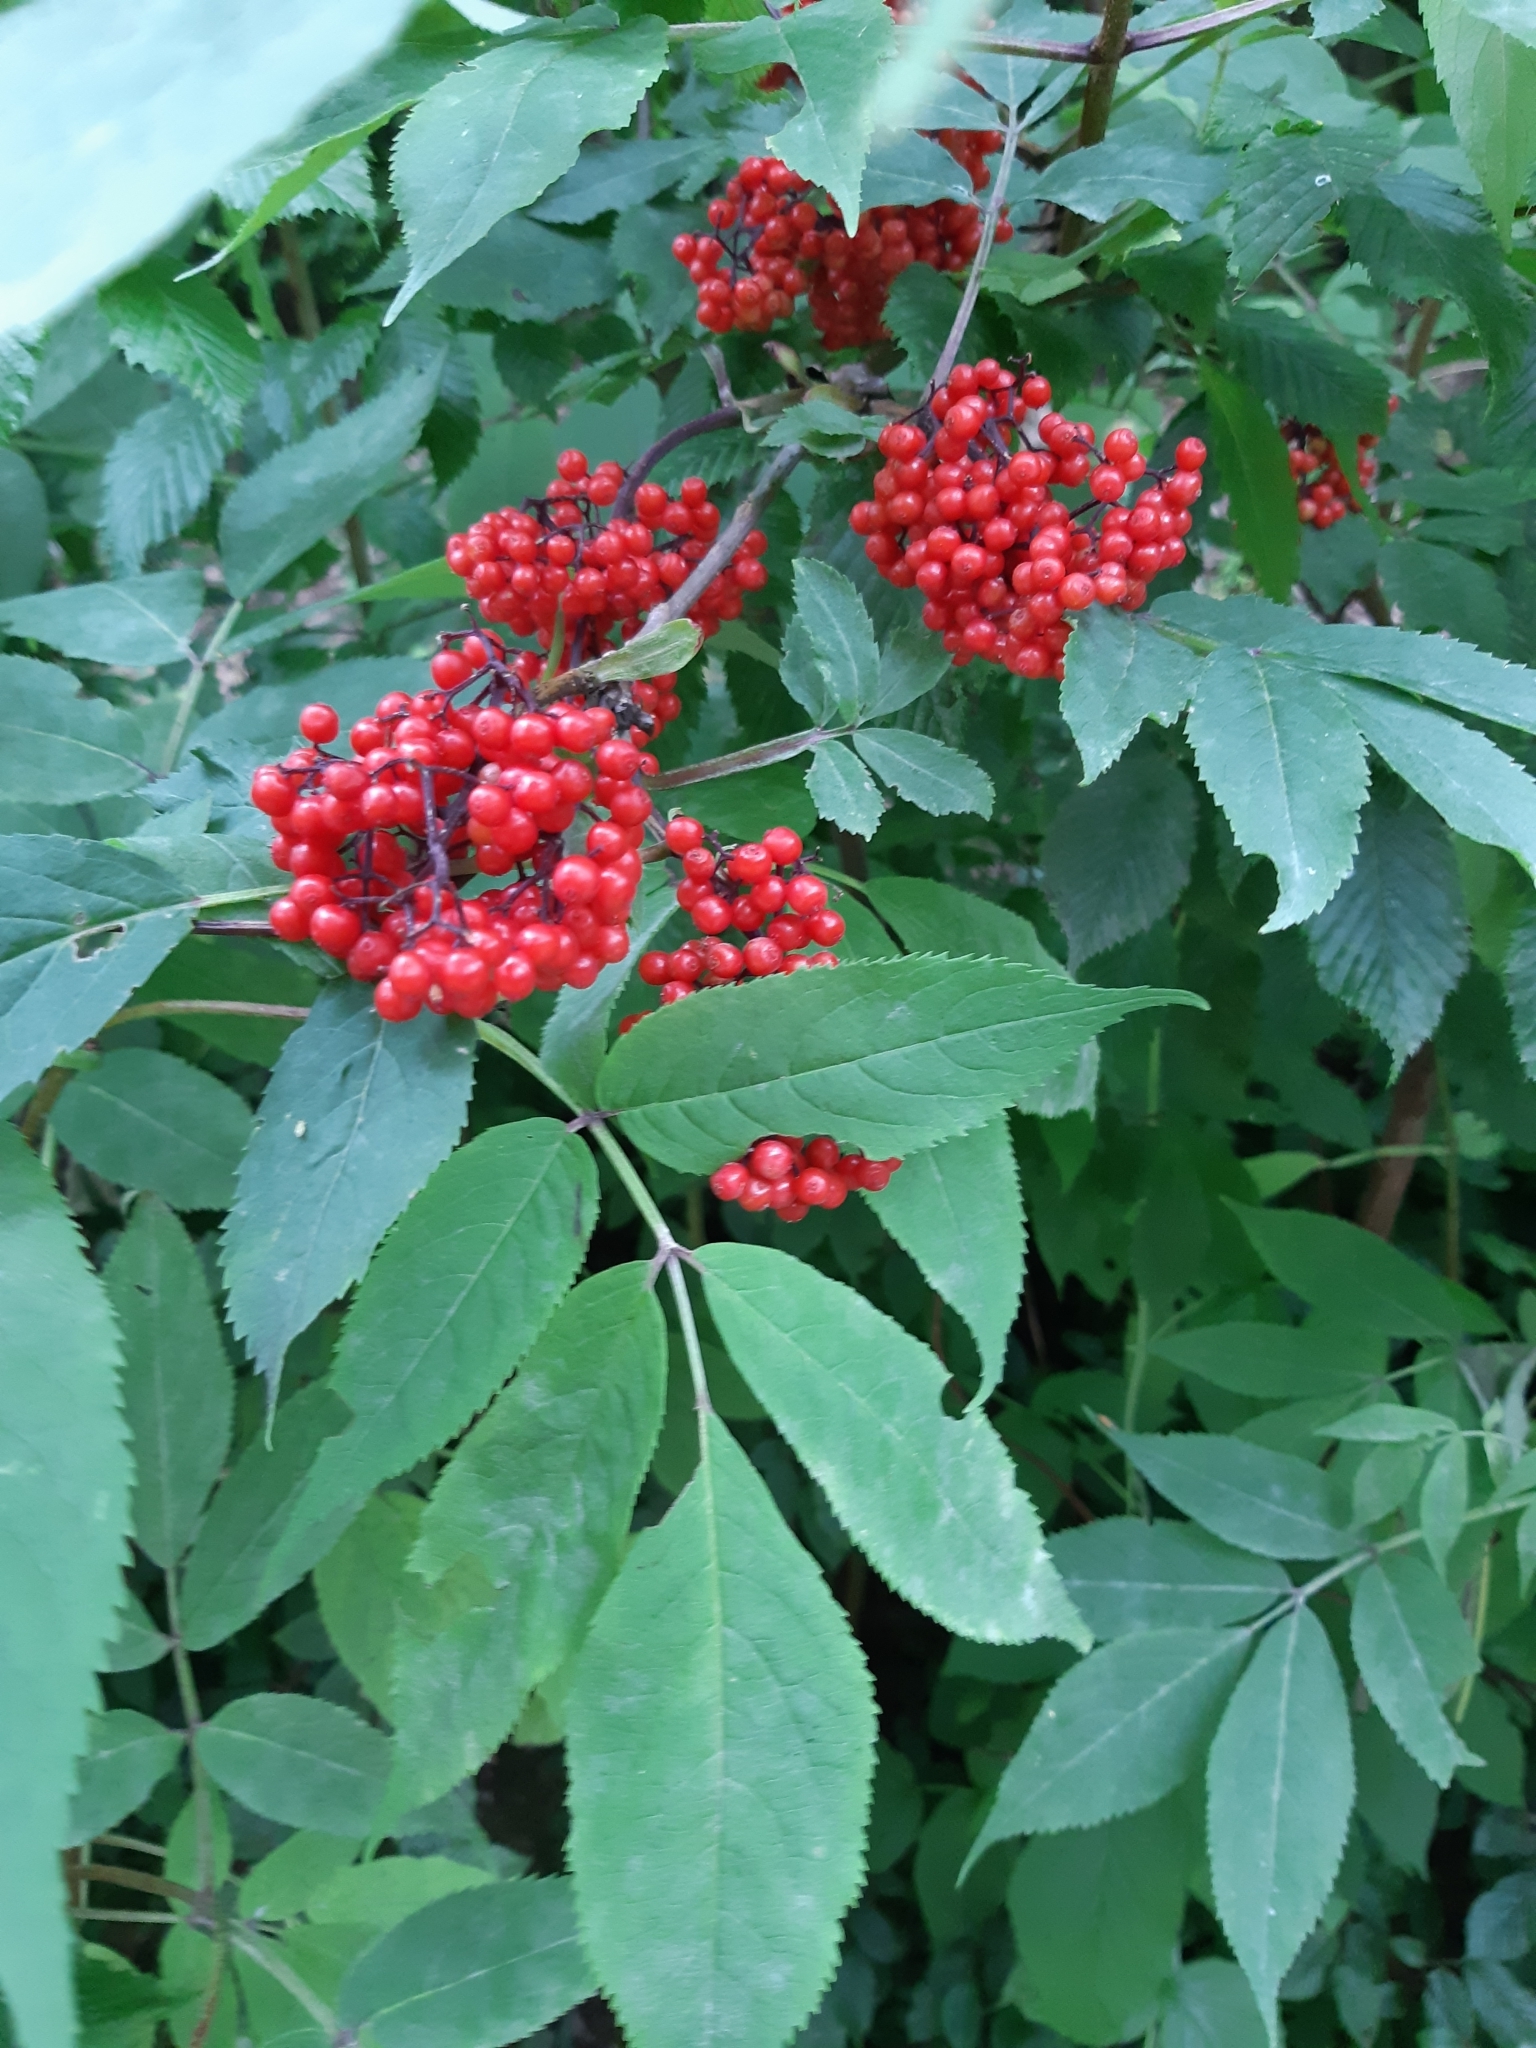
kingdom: Plantae
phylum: Tracheophyta
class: Magnoliopsida
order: Dipsacales
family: Viburnaceae
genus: Sambucus
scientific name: Sambucus racemosa
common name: Red-berried elder
